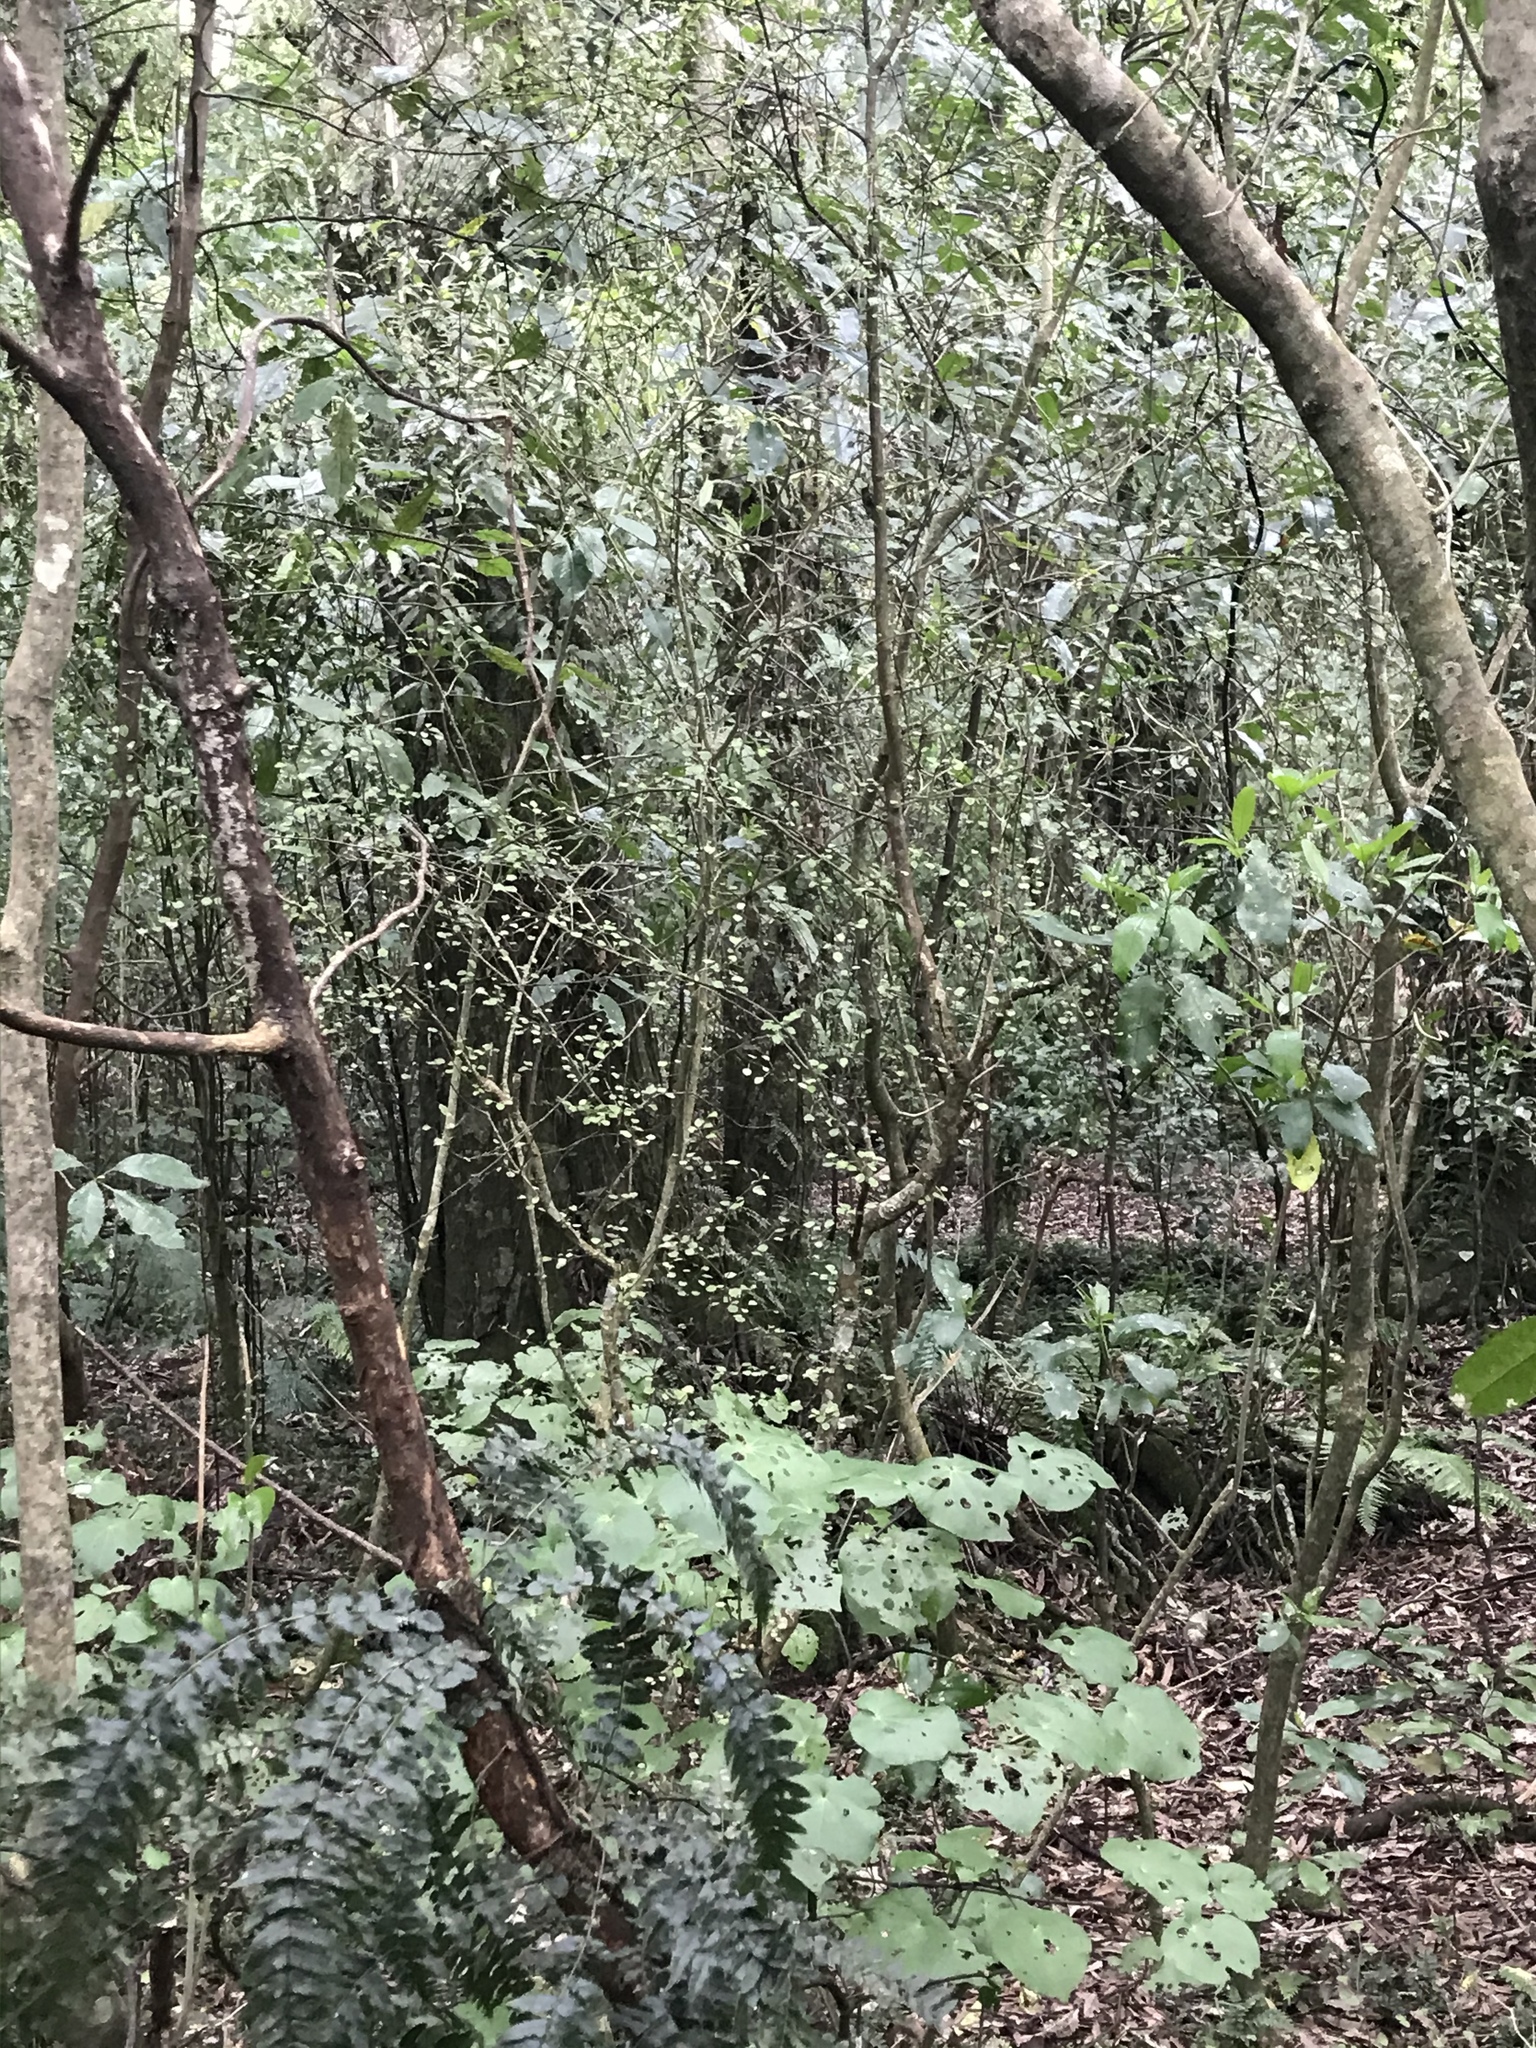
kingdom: Plantae
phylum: Tracheophyta
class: Magnoliopsida
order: Sapindales
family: Rutaceae
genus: Melicope
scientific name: Melicope simplex
